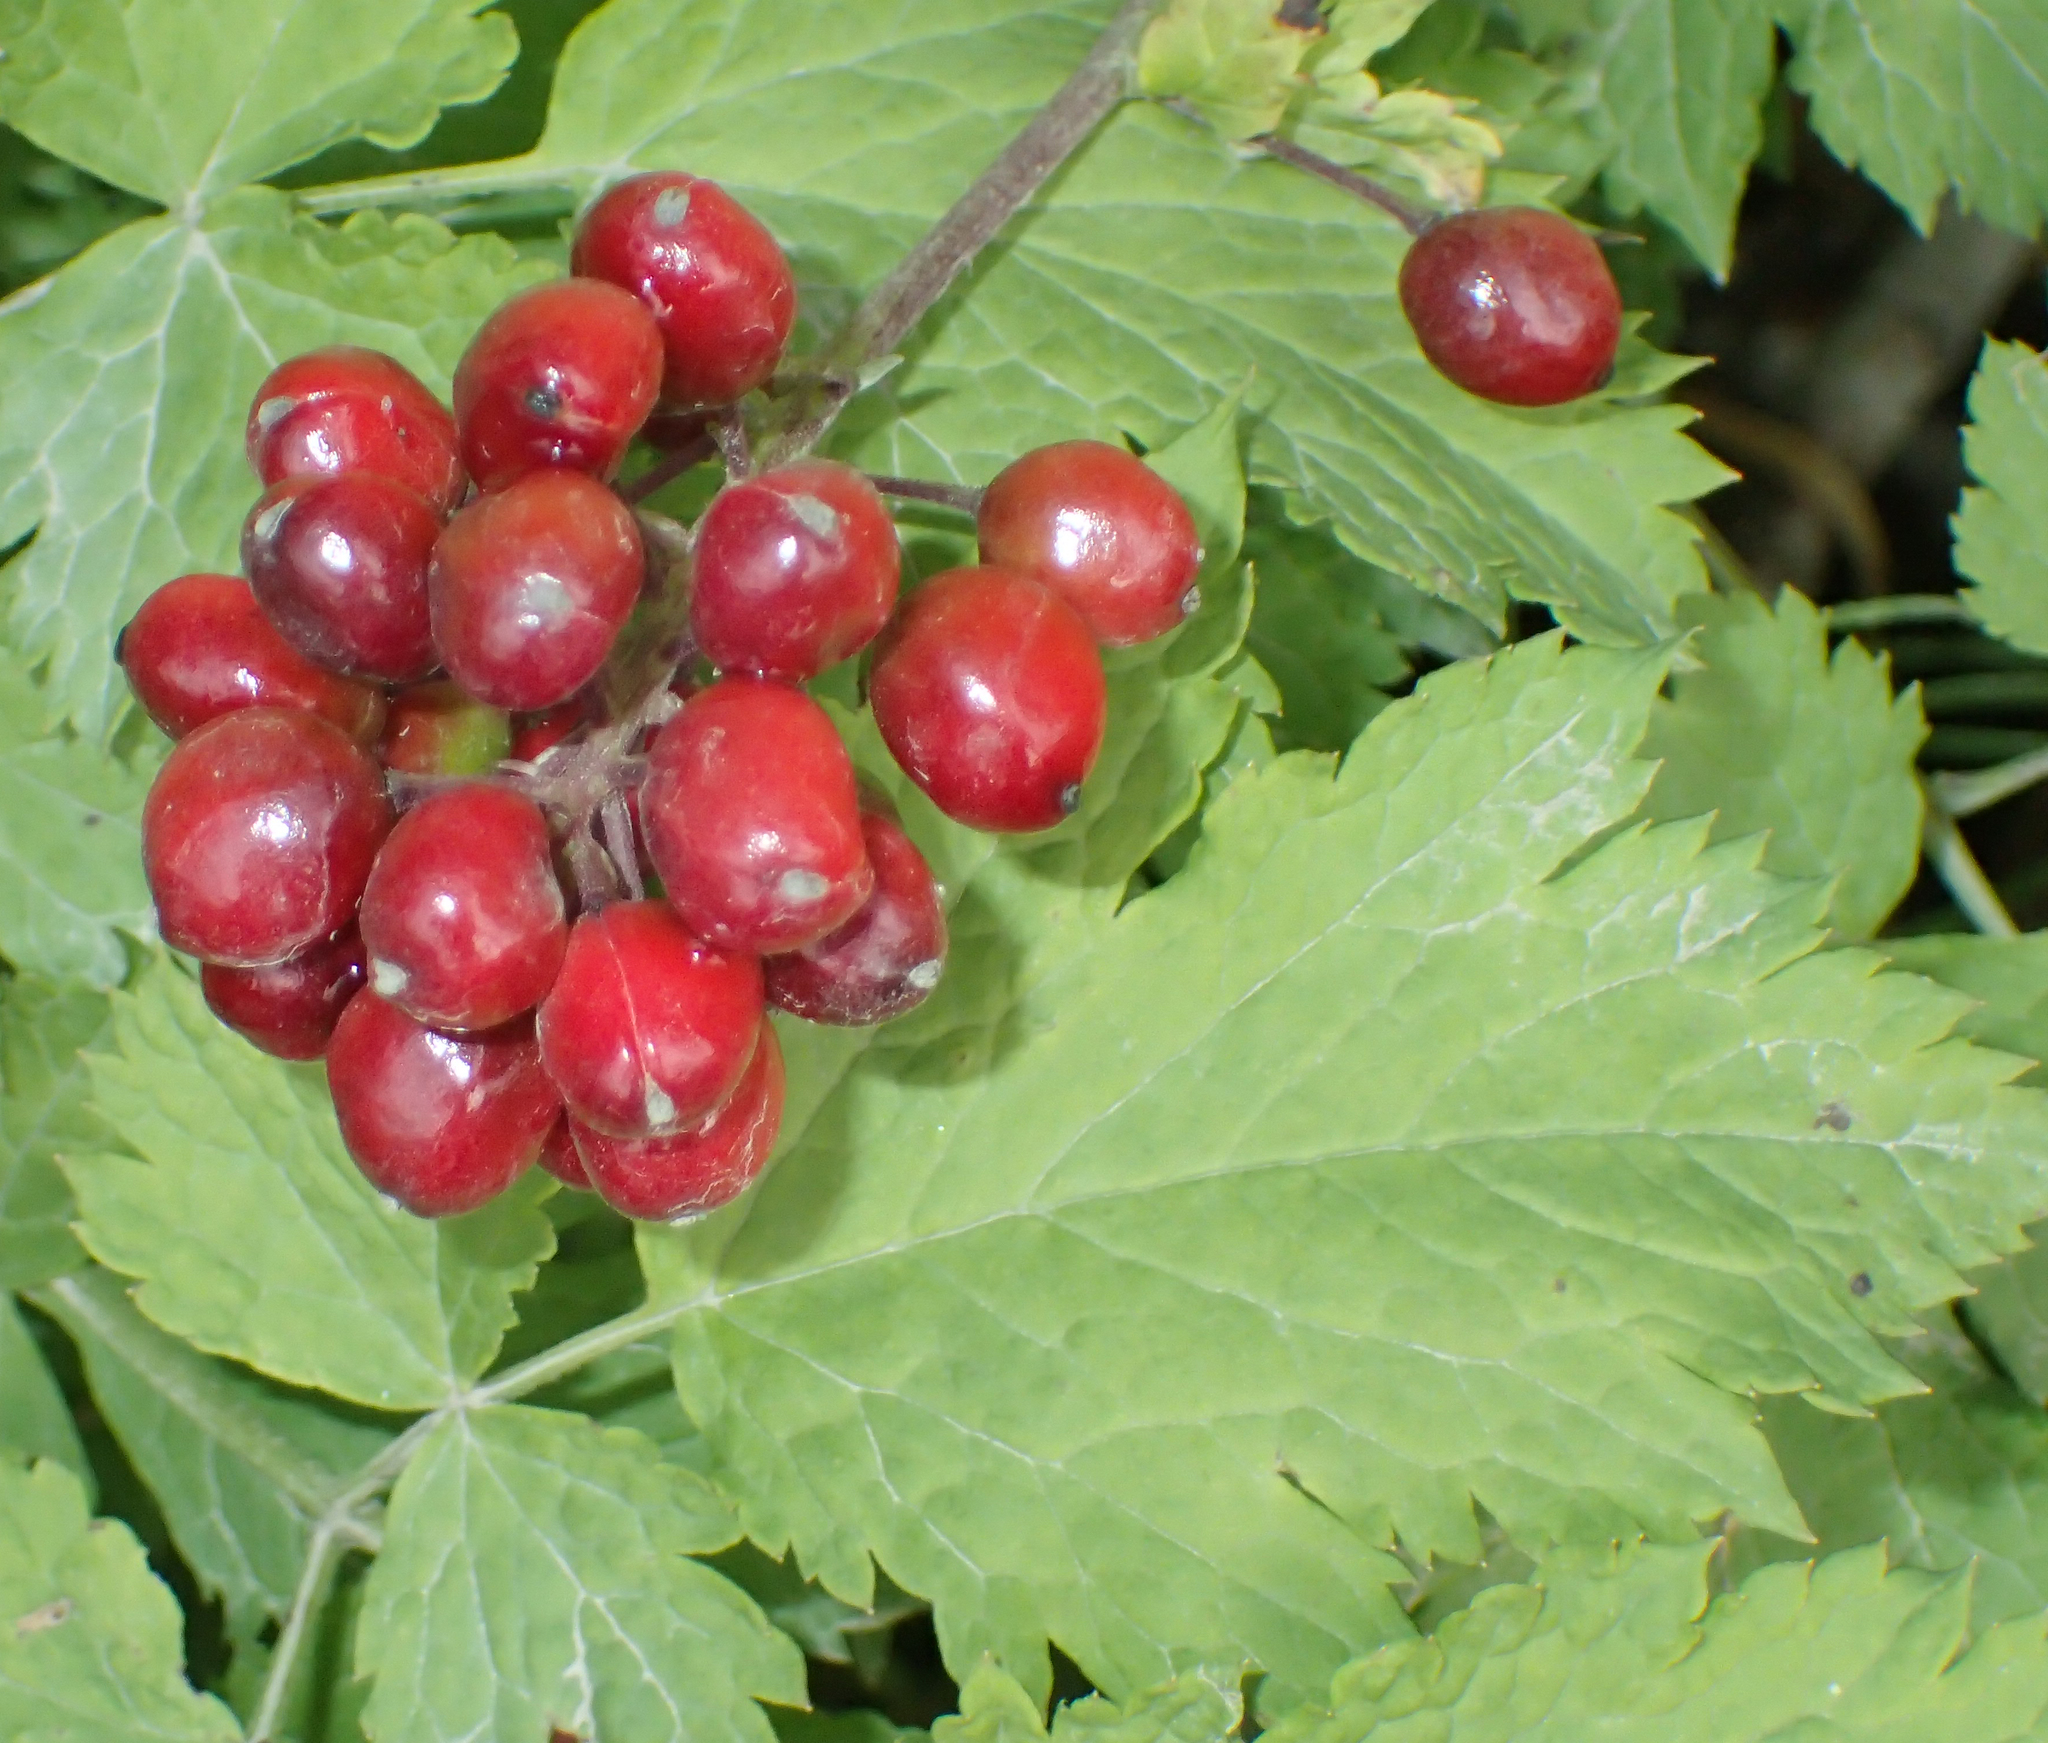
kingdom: Plantae
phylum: Tracheophyta
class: Magnoliopsida
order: Ranunculales
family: Ranunculaceae
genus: Actaea
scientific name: Actaea rubra
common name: Red baneberry
